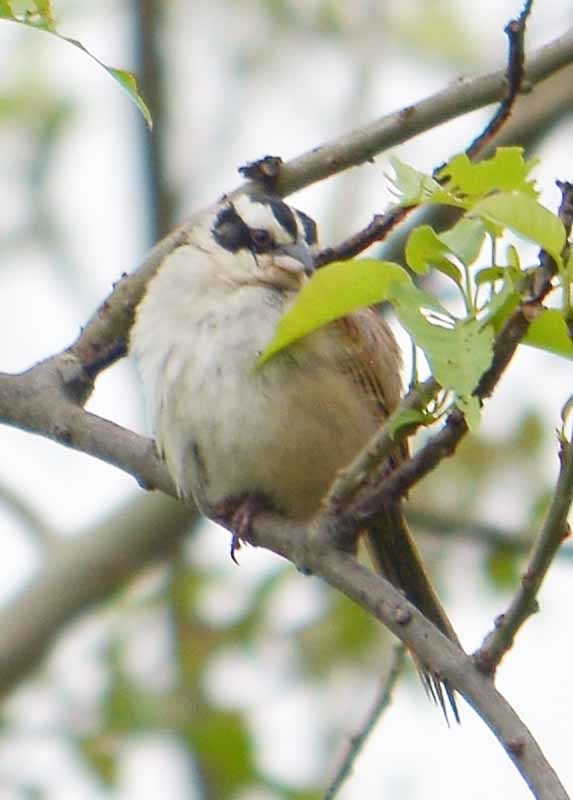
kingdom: Animalia
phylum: Chordata
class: Aves
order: Passeriformes
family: Passerellidae
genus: Peucaea
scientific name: Peucaea ruficauda
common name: Stripe-headed sparrow
